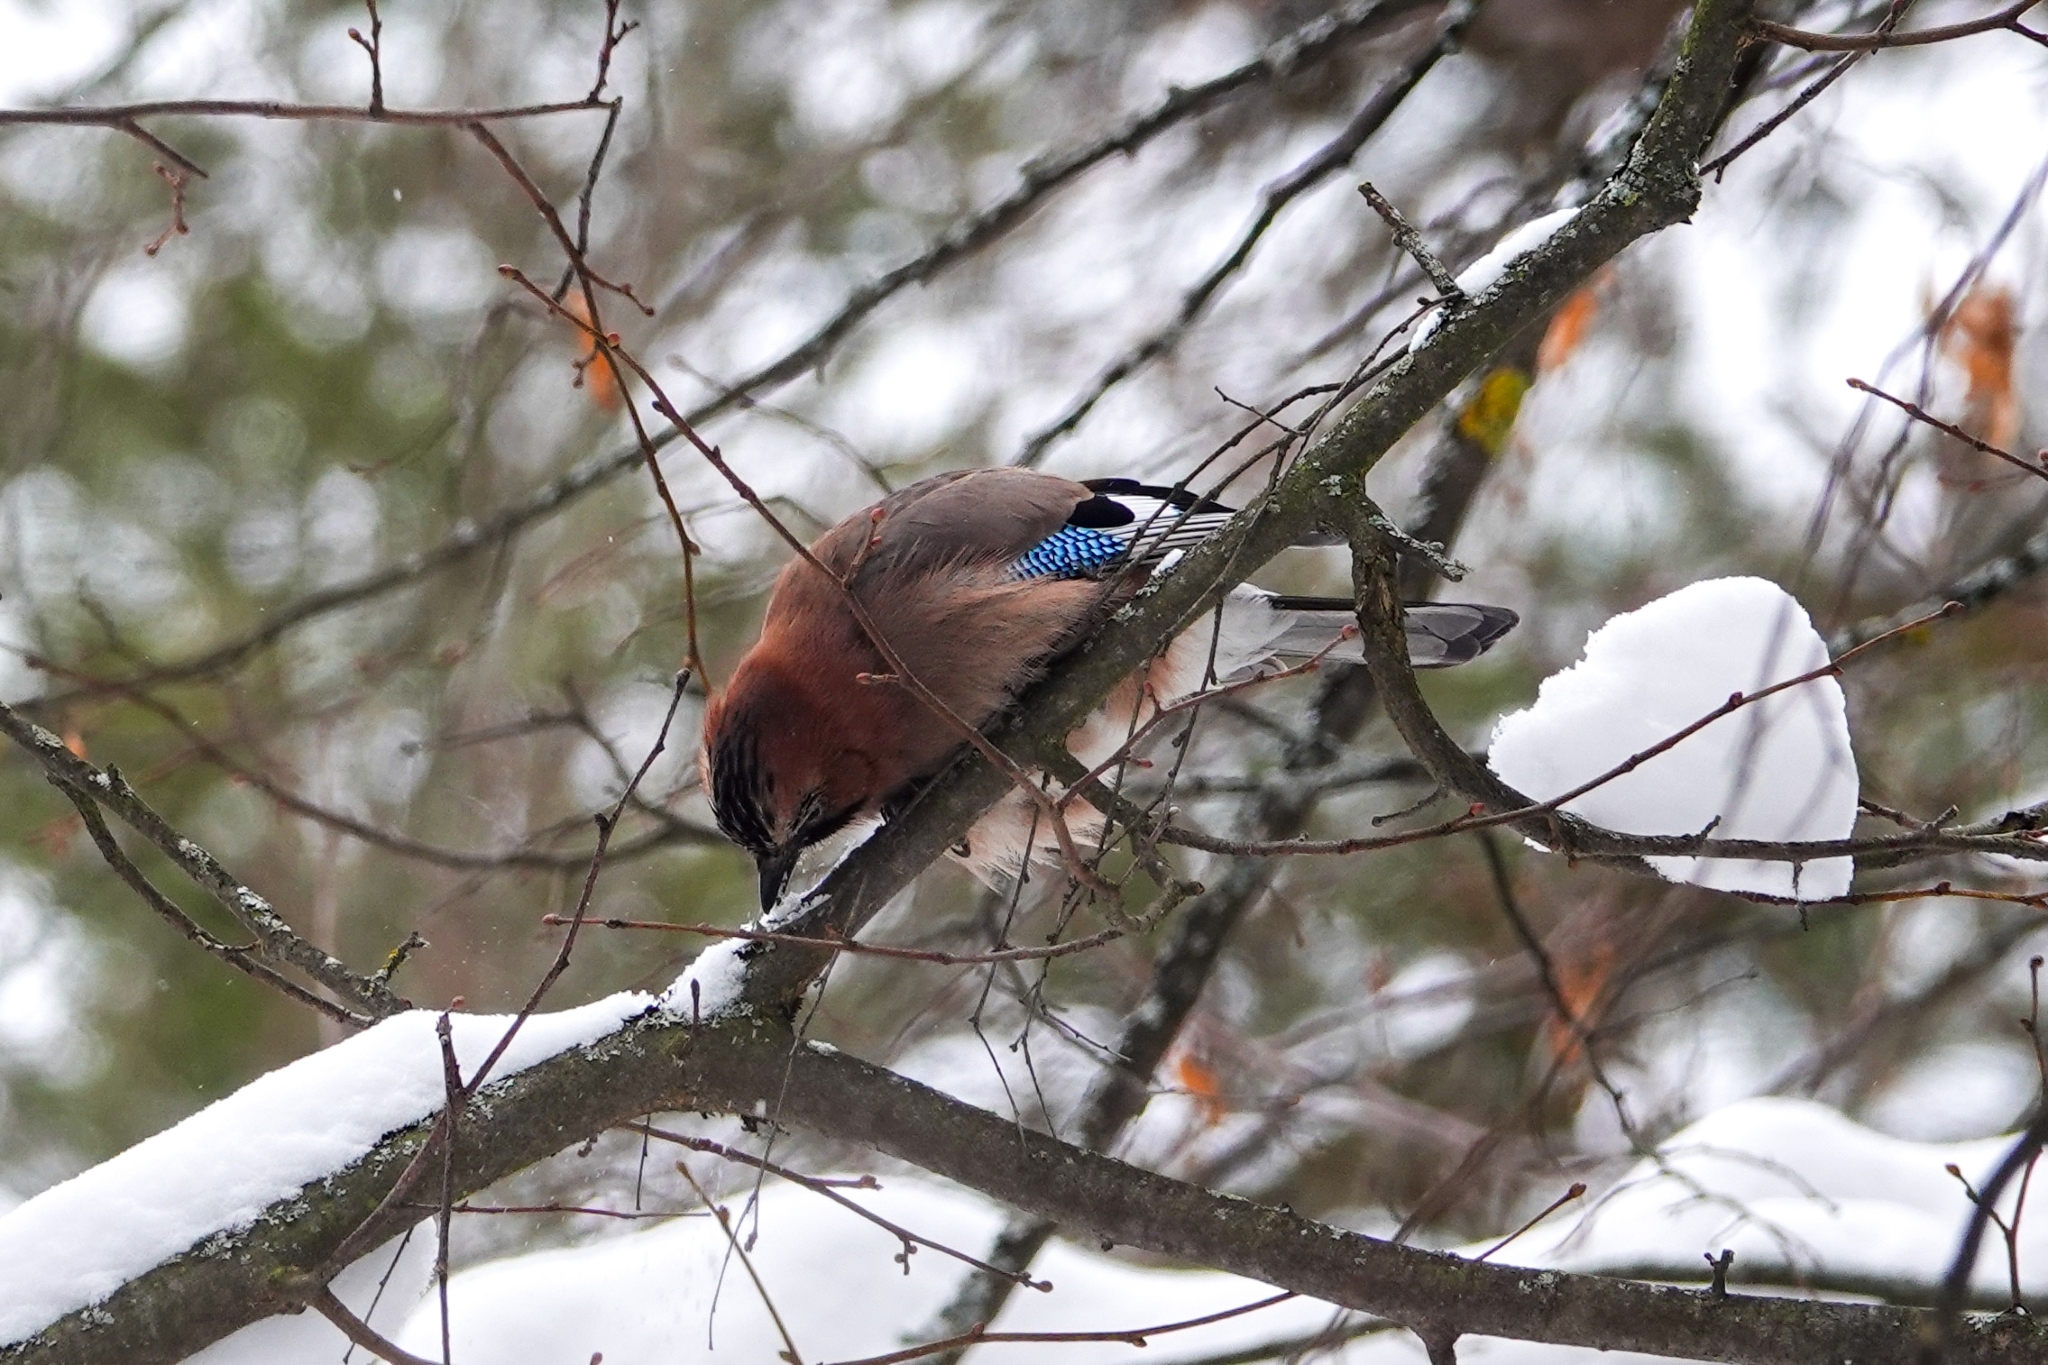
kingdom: Animalia
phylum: Chordata
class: Aves
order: Passeriformes
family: Corvidae
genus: Garrulus
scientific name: Garrulus glandarius
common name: Eurasian jay
